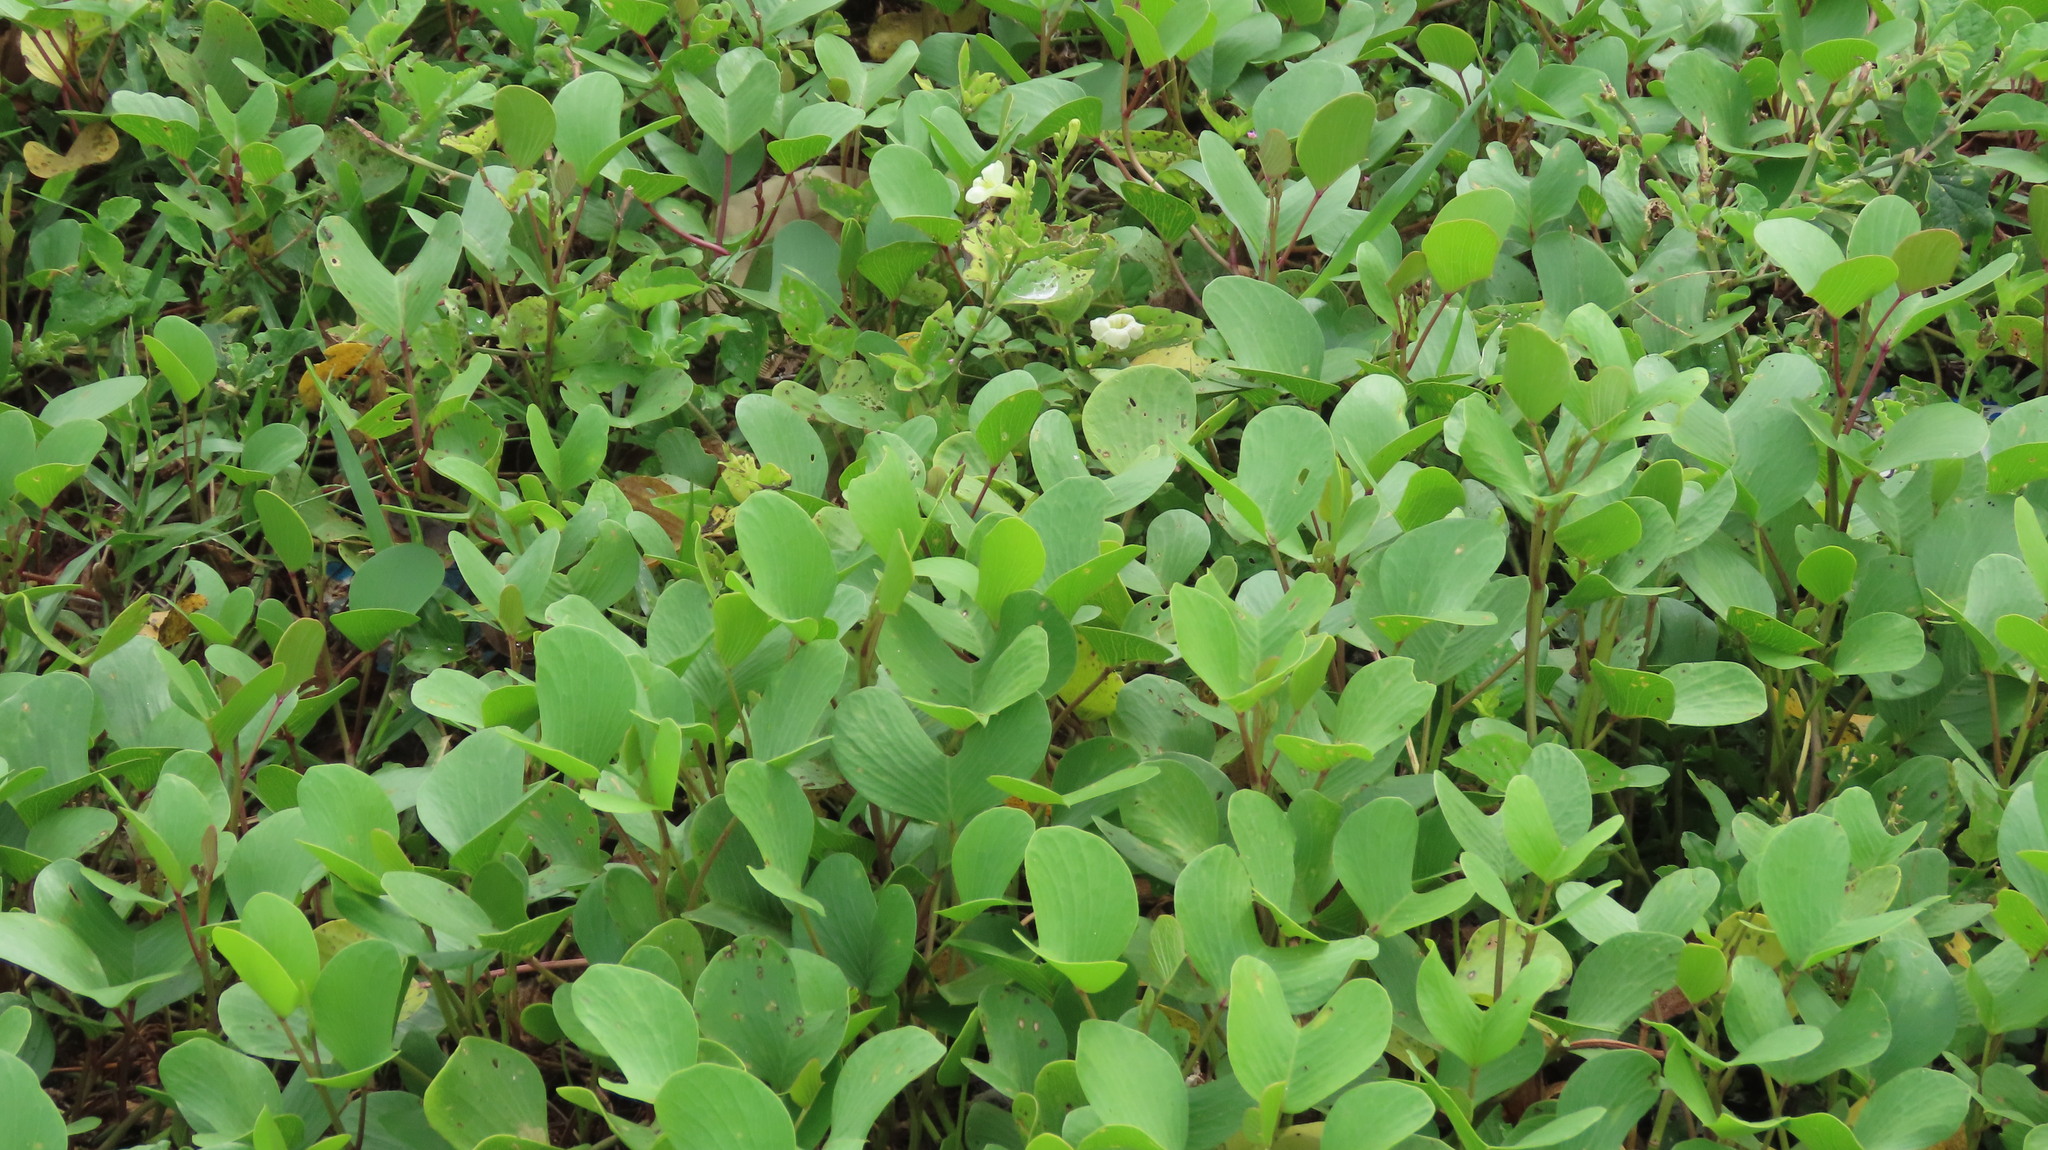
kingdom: Plantae
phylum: Tracheophyta
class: Magnoliopsida
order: Solanales
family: Convolvulaceae
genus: Ipomoea
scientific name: Ipomoea pes-caprae
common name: Beach morning glory
